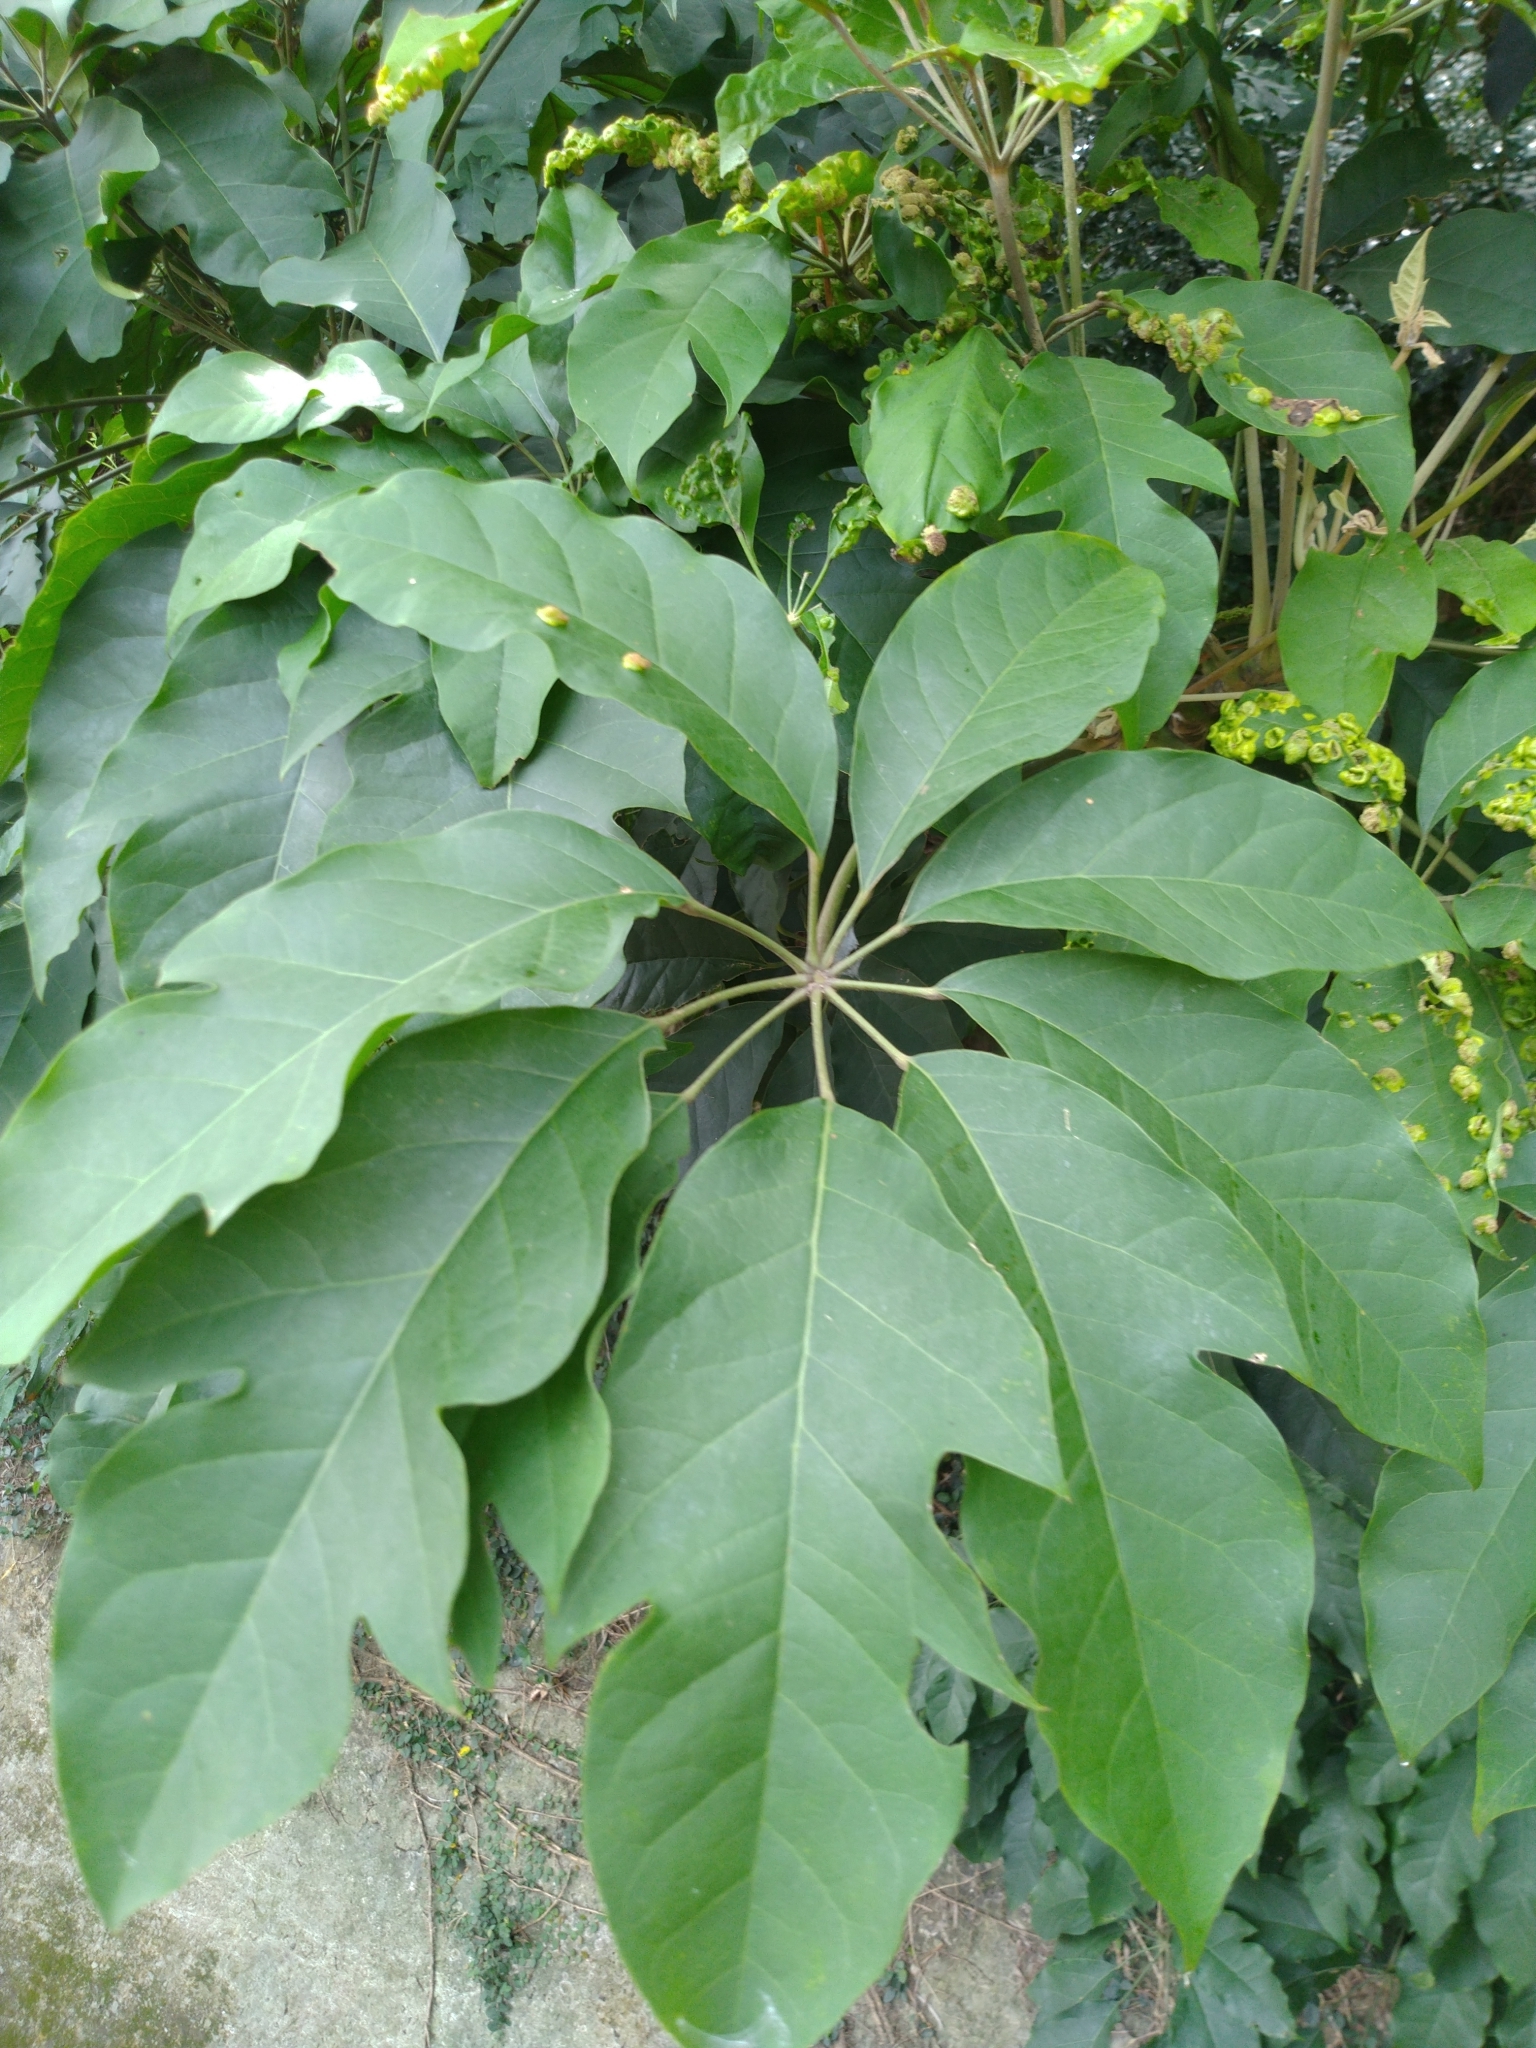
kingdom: Plantae
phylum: Tracheophyta
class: Magnoliopsida
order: Apiales
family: Araliaceae
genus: Heptapleurum
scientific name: Heptapleurum heptaphyllum
